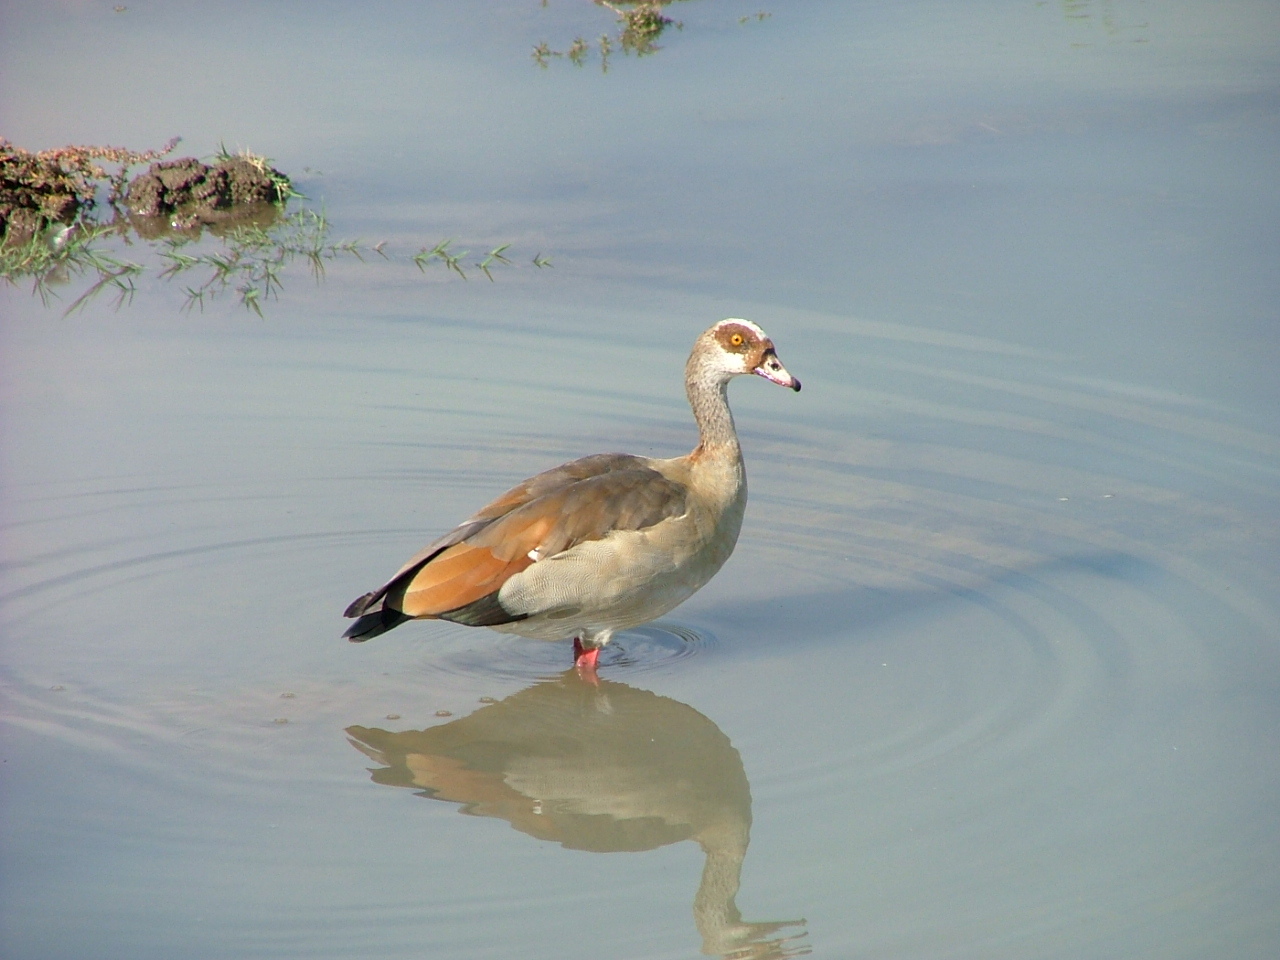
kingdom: Animalia
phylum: Chordata
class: Aves
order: Anseriformes
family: Anatidae
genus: Alopochen
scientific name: Alopochen aegyptiaca
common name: Egyptian goose
